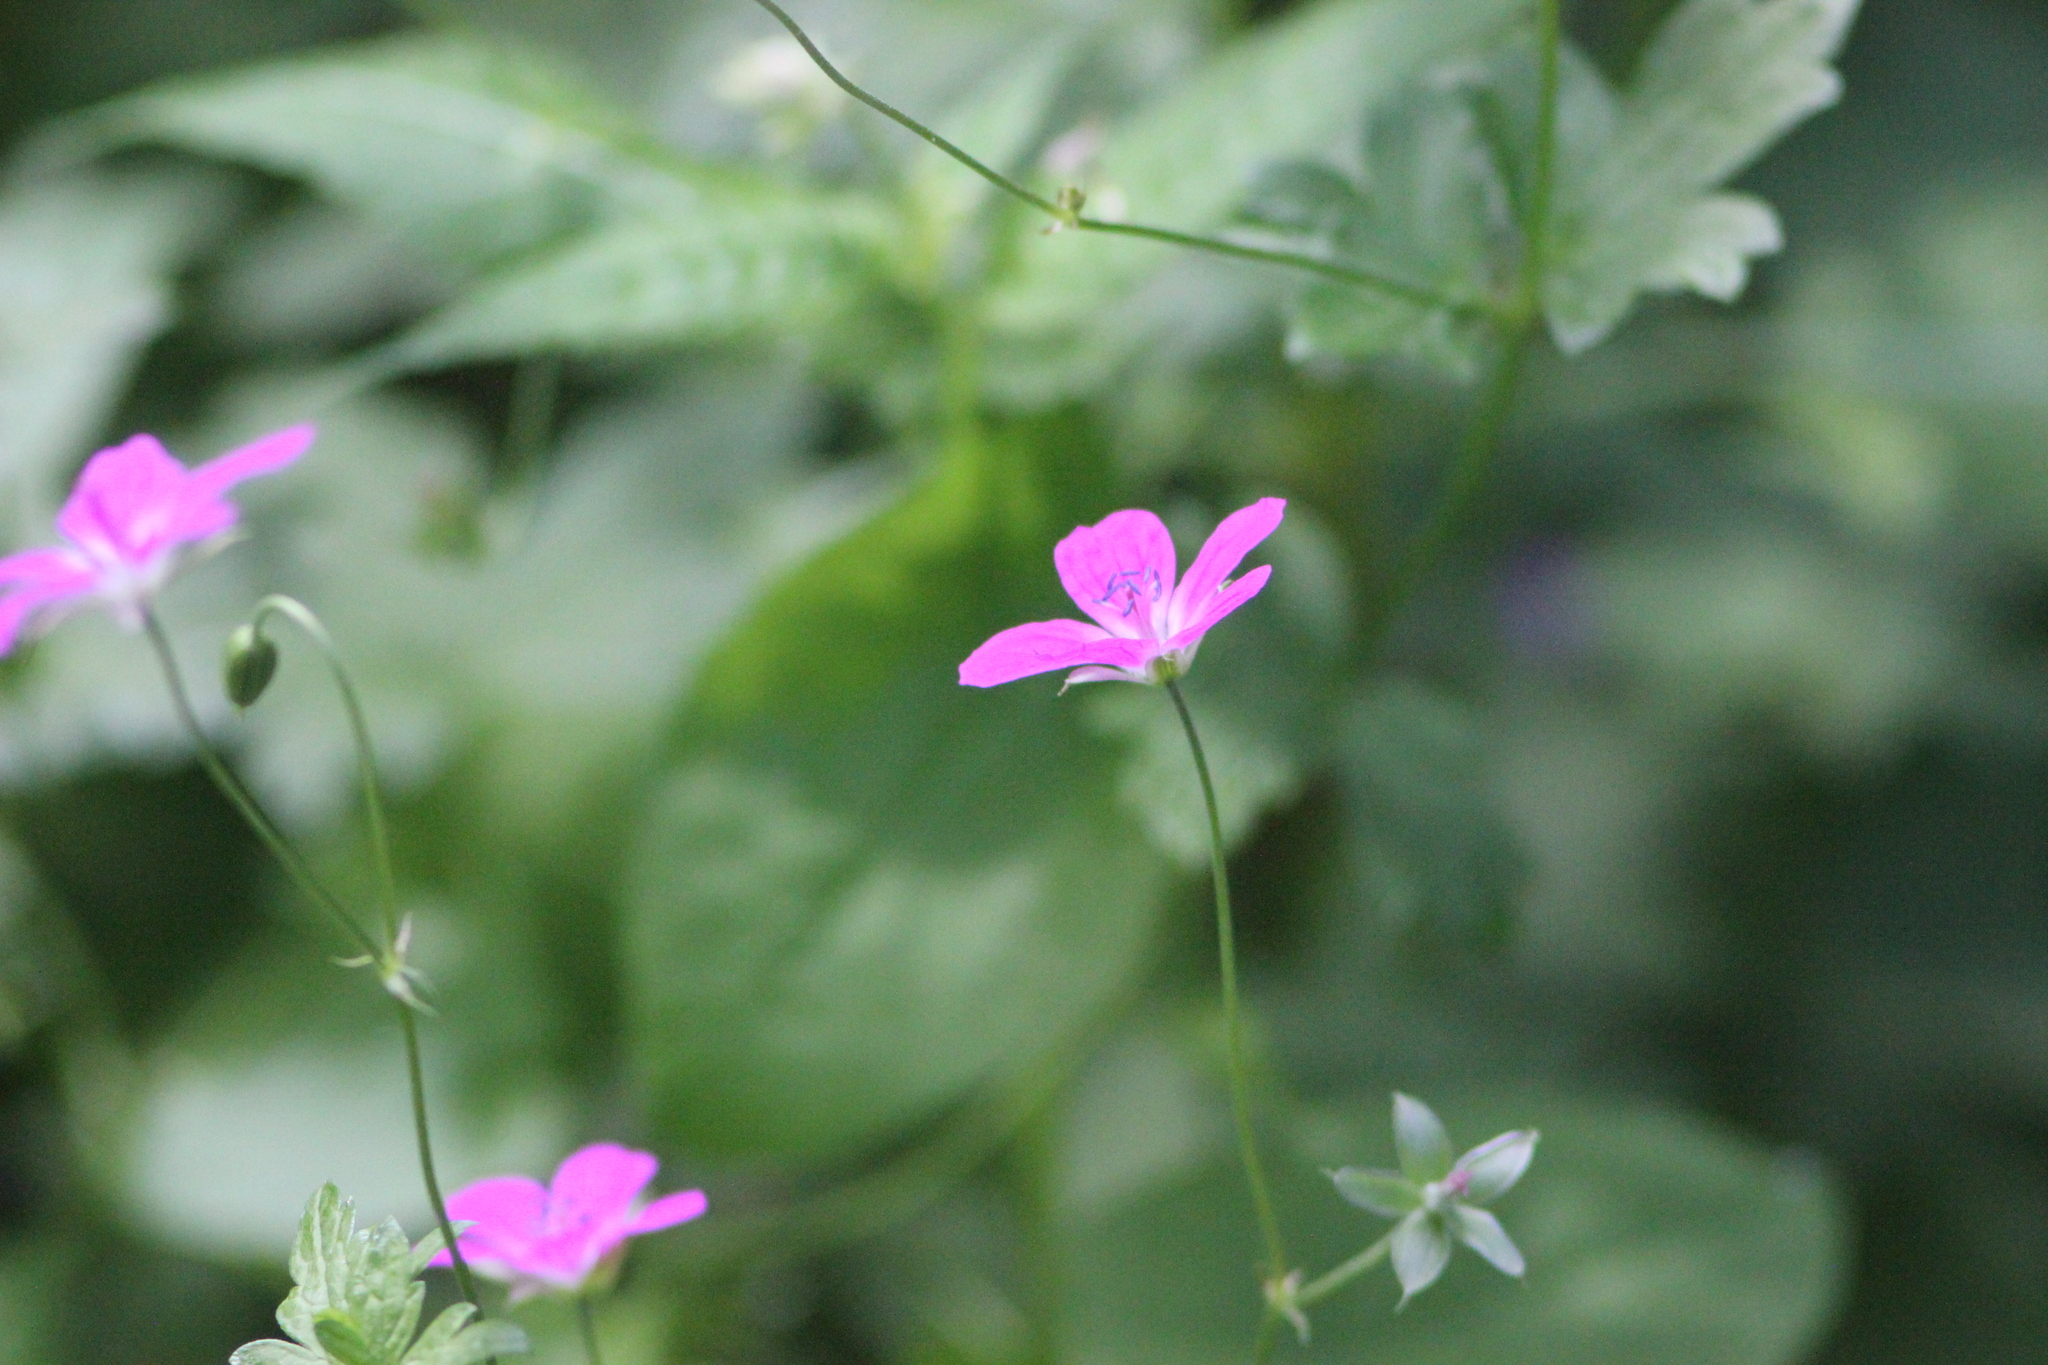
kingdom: Plantae
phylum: Tracheophyta
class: Magnoliopsida
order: Geraniales
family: Geraniaceae
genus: Geranium
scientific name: Geranium palustre
